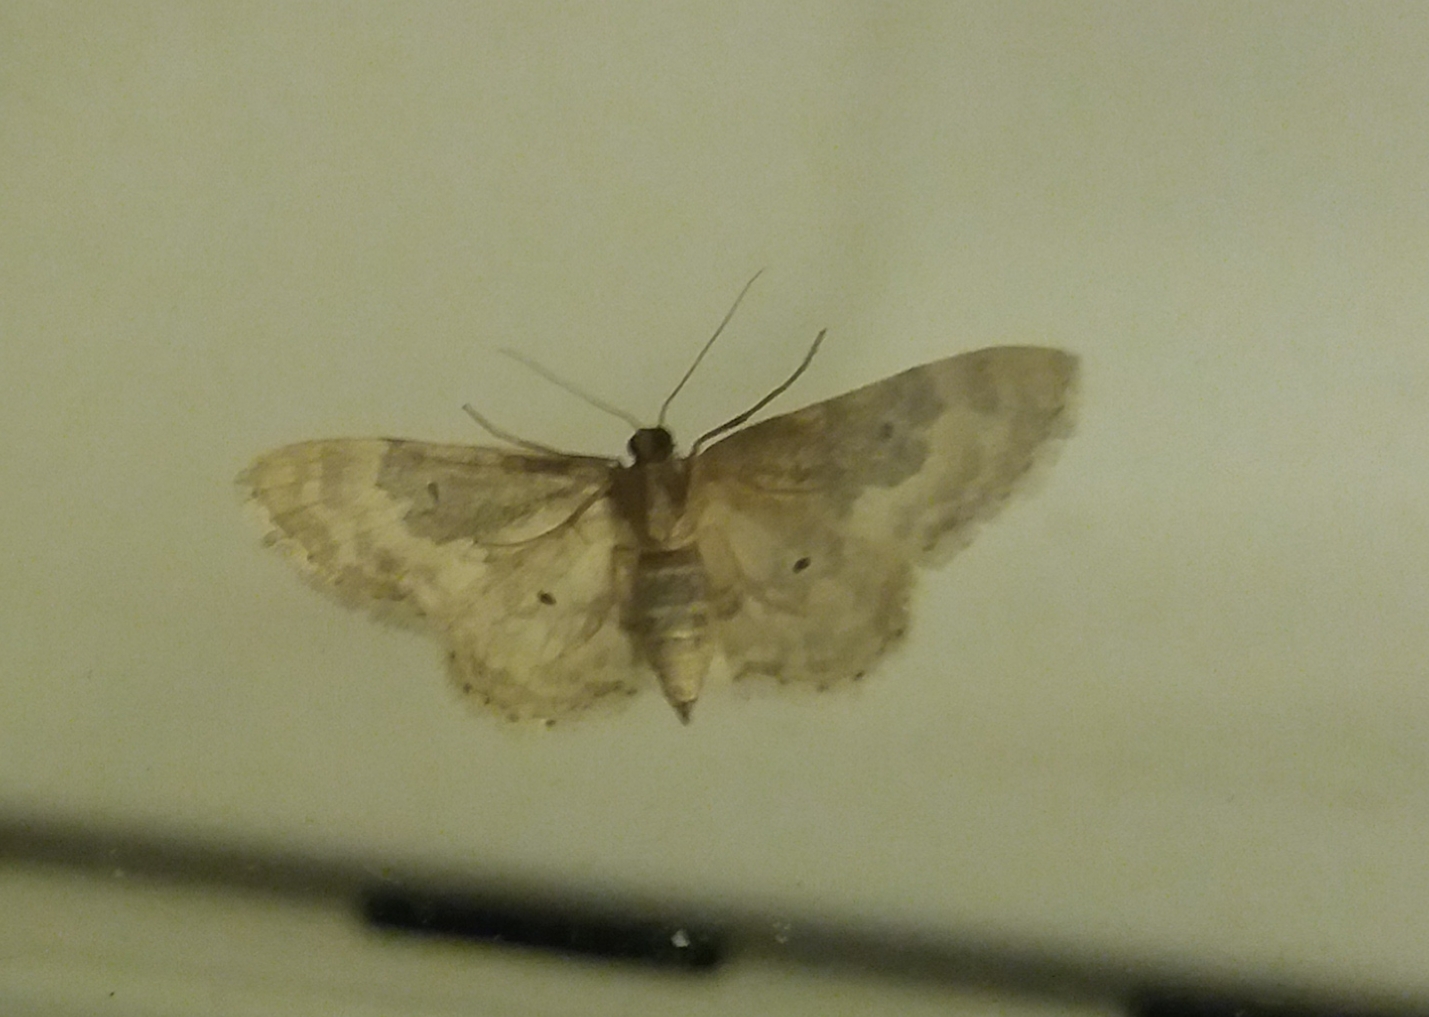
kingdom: Animalia
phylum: Arthropoda
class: Insecta
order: Lepidoptera
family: Geometridae
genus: Idaea
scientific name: Idaea rusticata
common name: Least carpet
